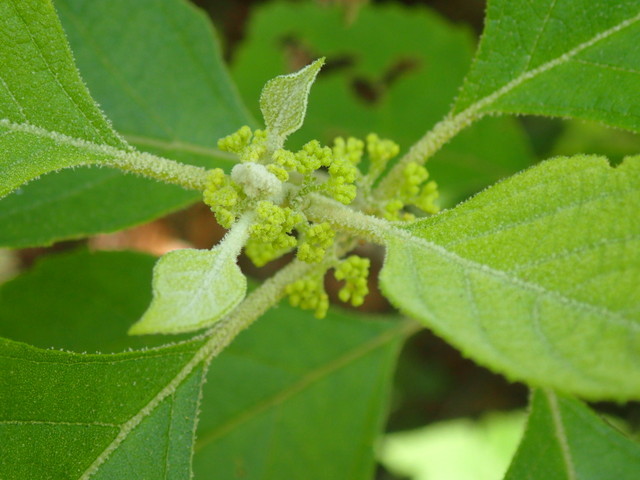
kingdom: Plantae
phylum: Tracheophyta
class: Magnoliopsida
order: Lamiales
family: Lamiaceae
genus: Callicarpa
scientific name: Callicarpa americana
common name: American beautyberry
